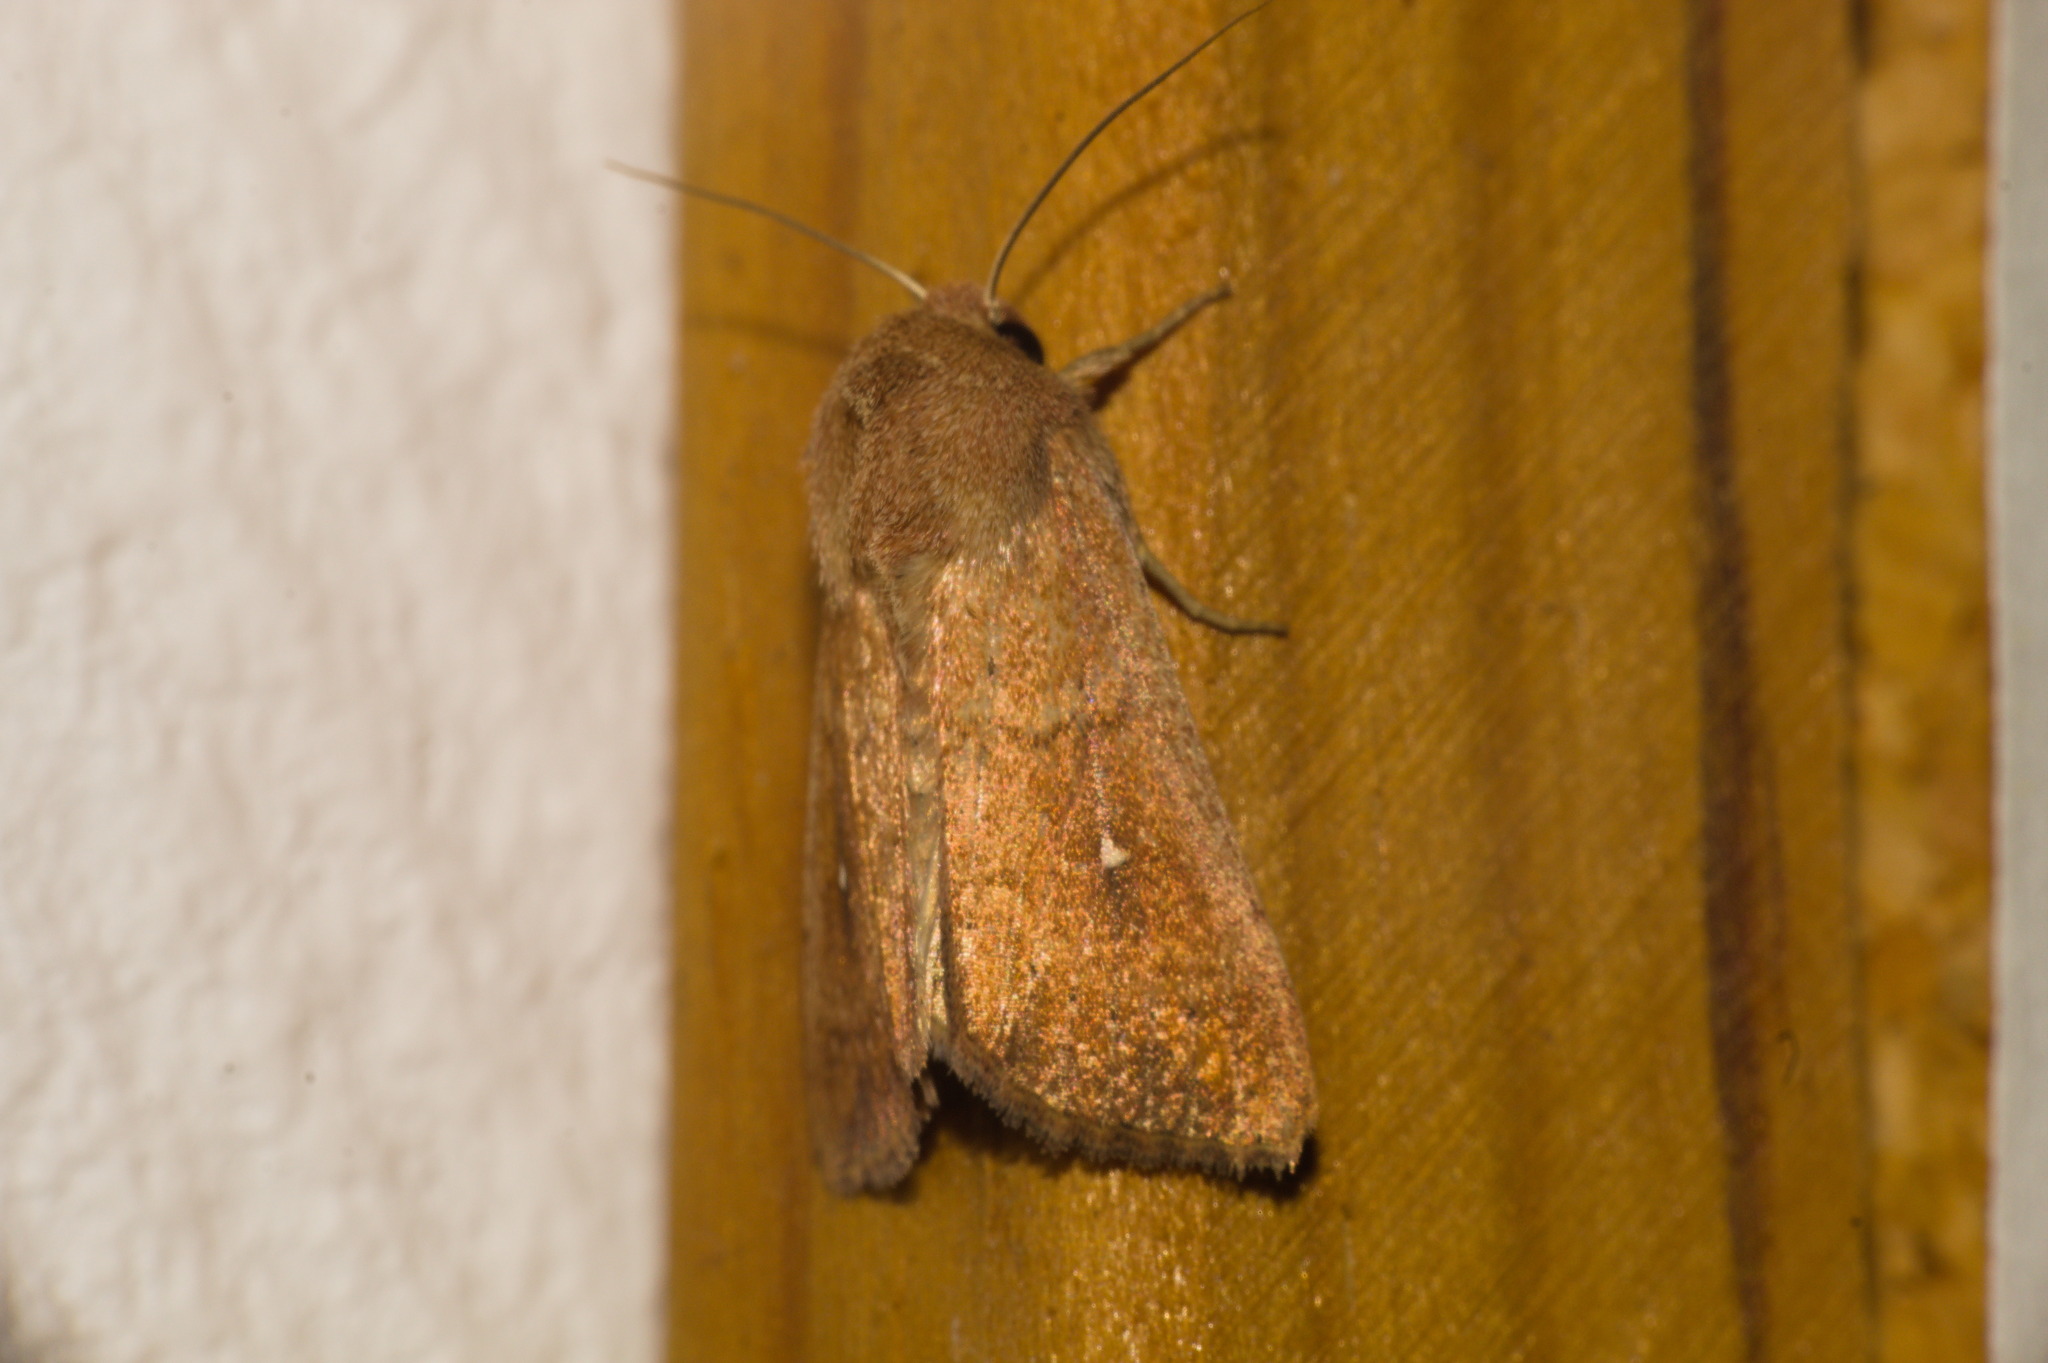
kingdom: Animalia
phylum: Arthropoda
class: Insecta
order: Lepidoptera
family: Noctuidae
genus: Mythimna
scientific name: Mythimna albipuncta
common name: White-point
